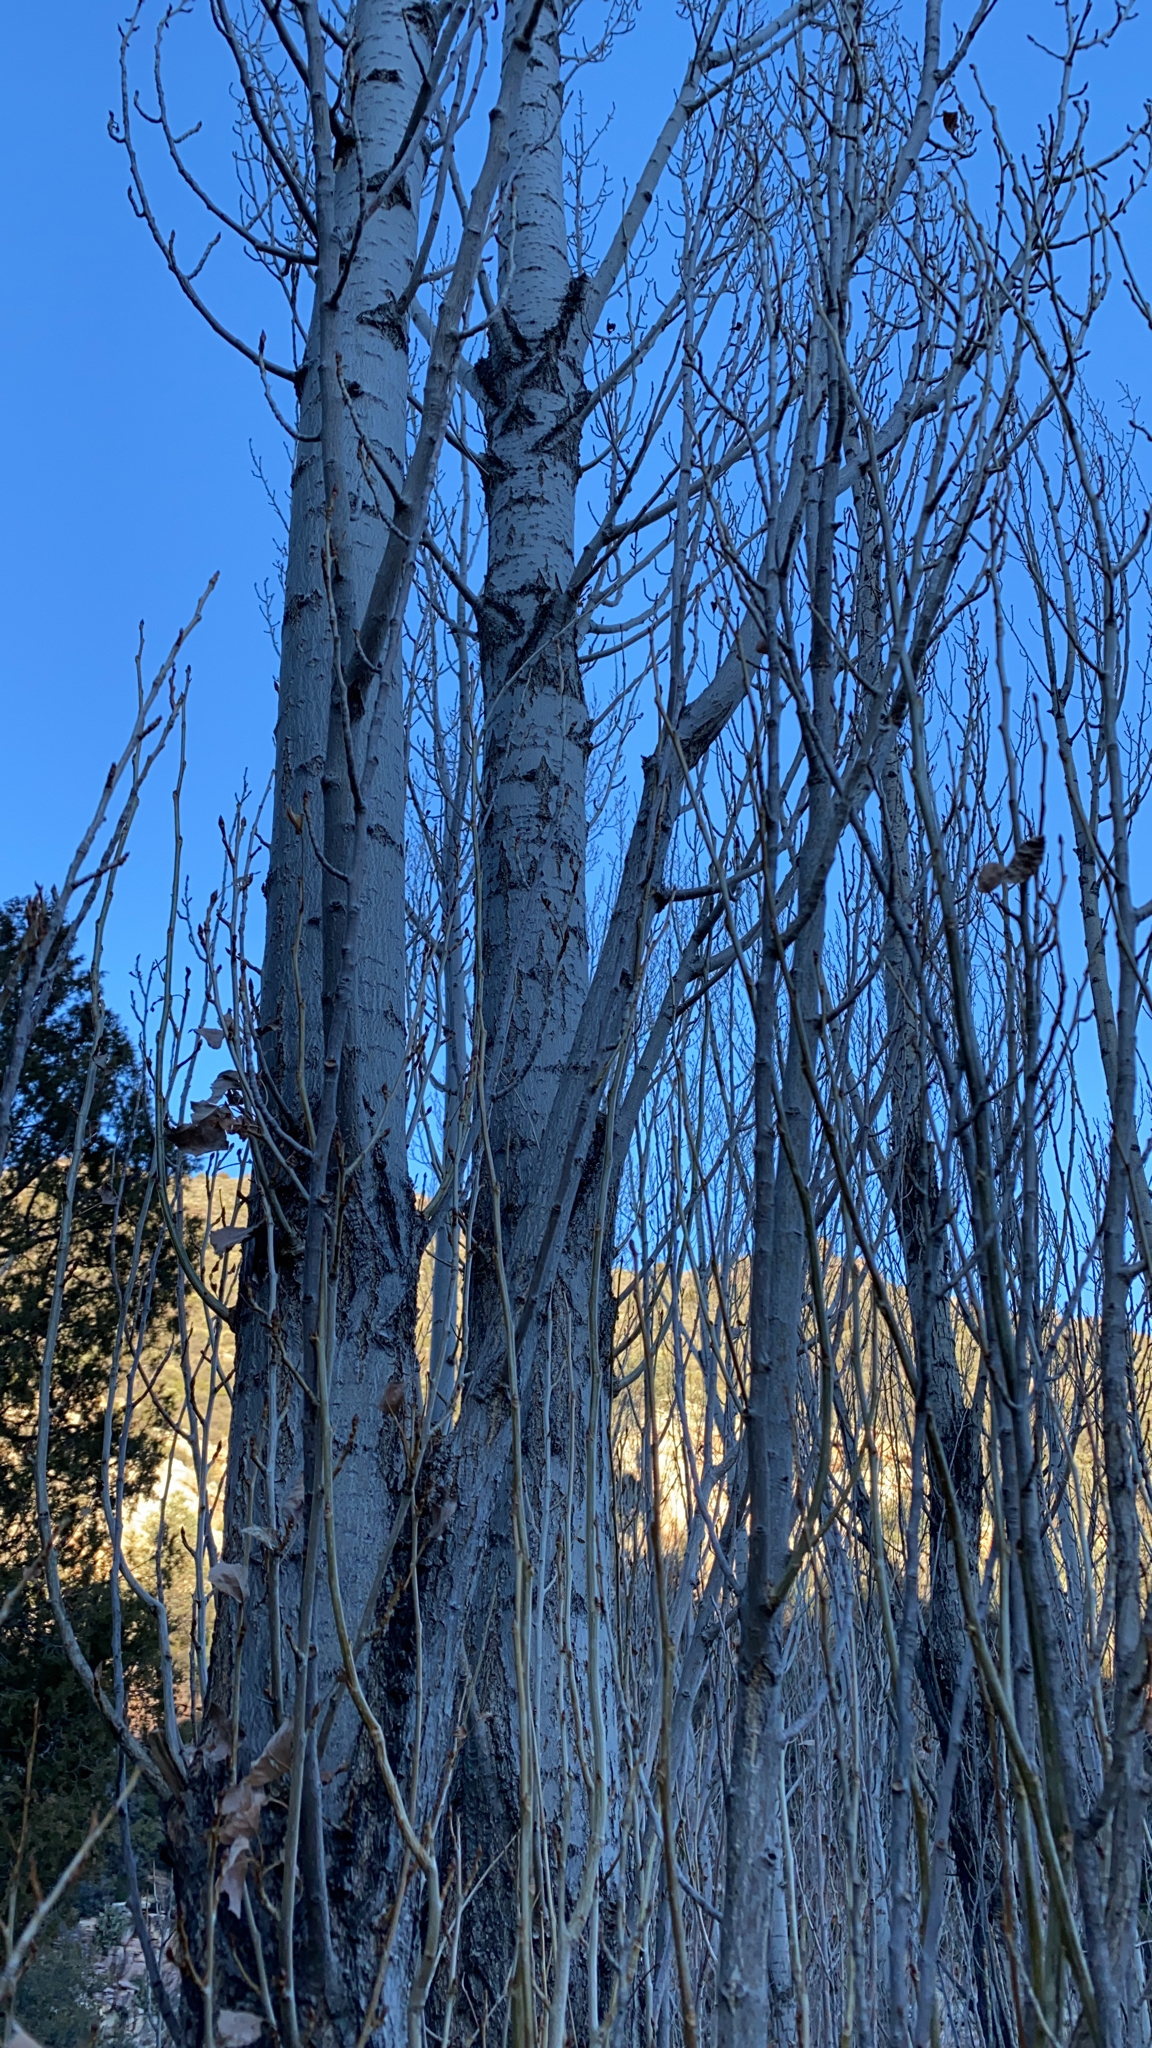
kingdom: Plantae
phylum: Tracheophyta
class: Magnoliopsida
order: Malpighiales
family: Salicaceae
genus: Populus
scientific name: Populus tremuloides
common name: Quaking aspen
